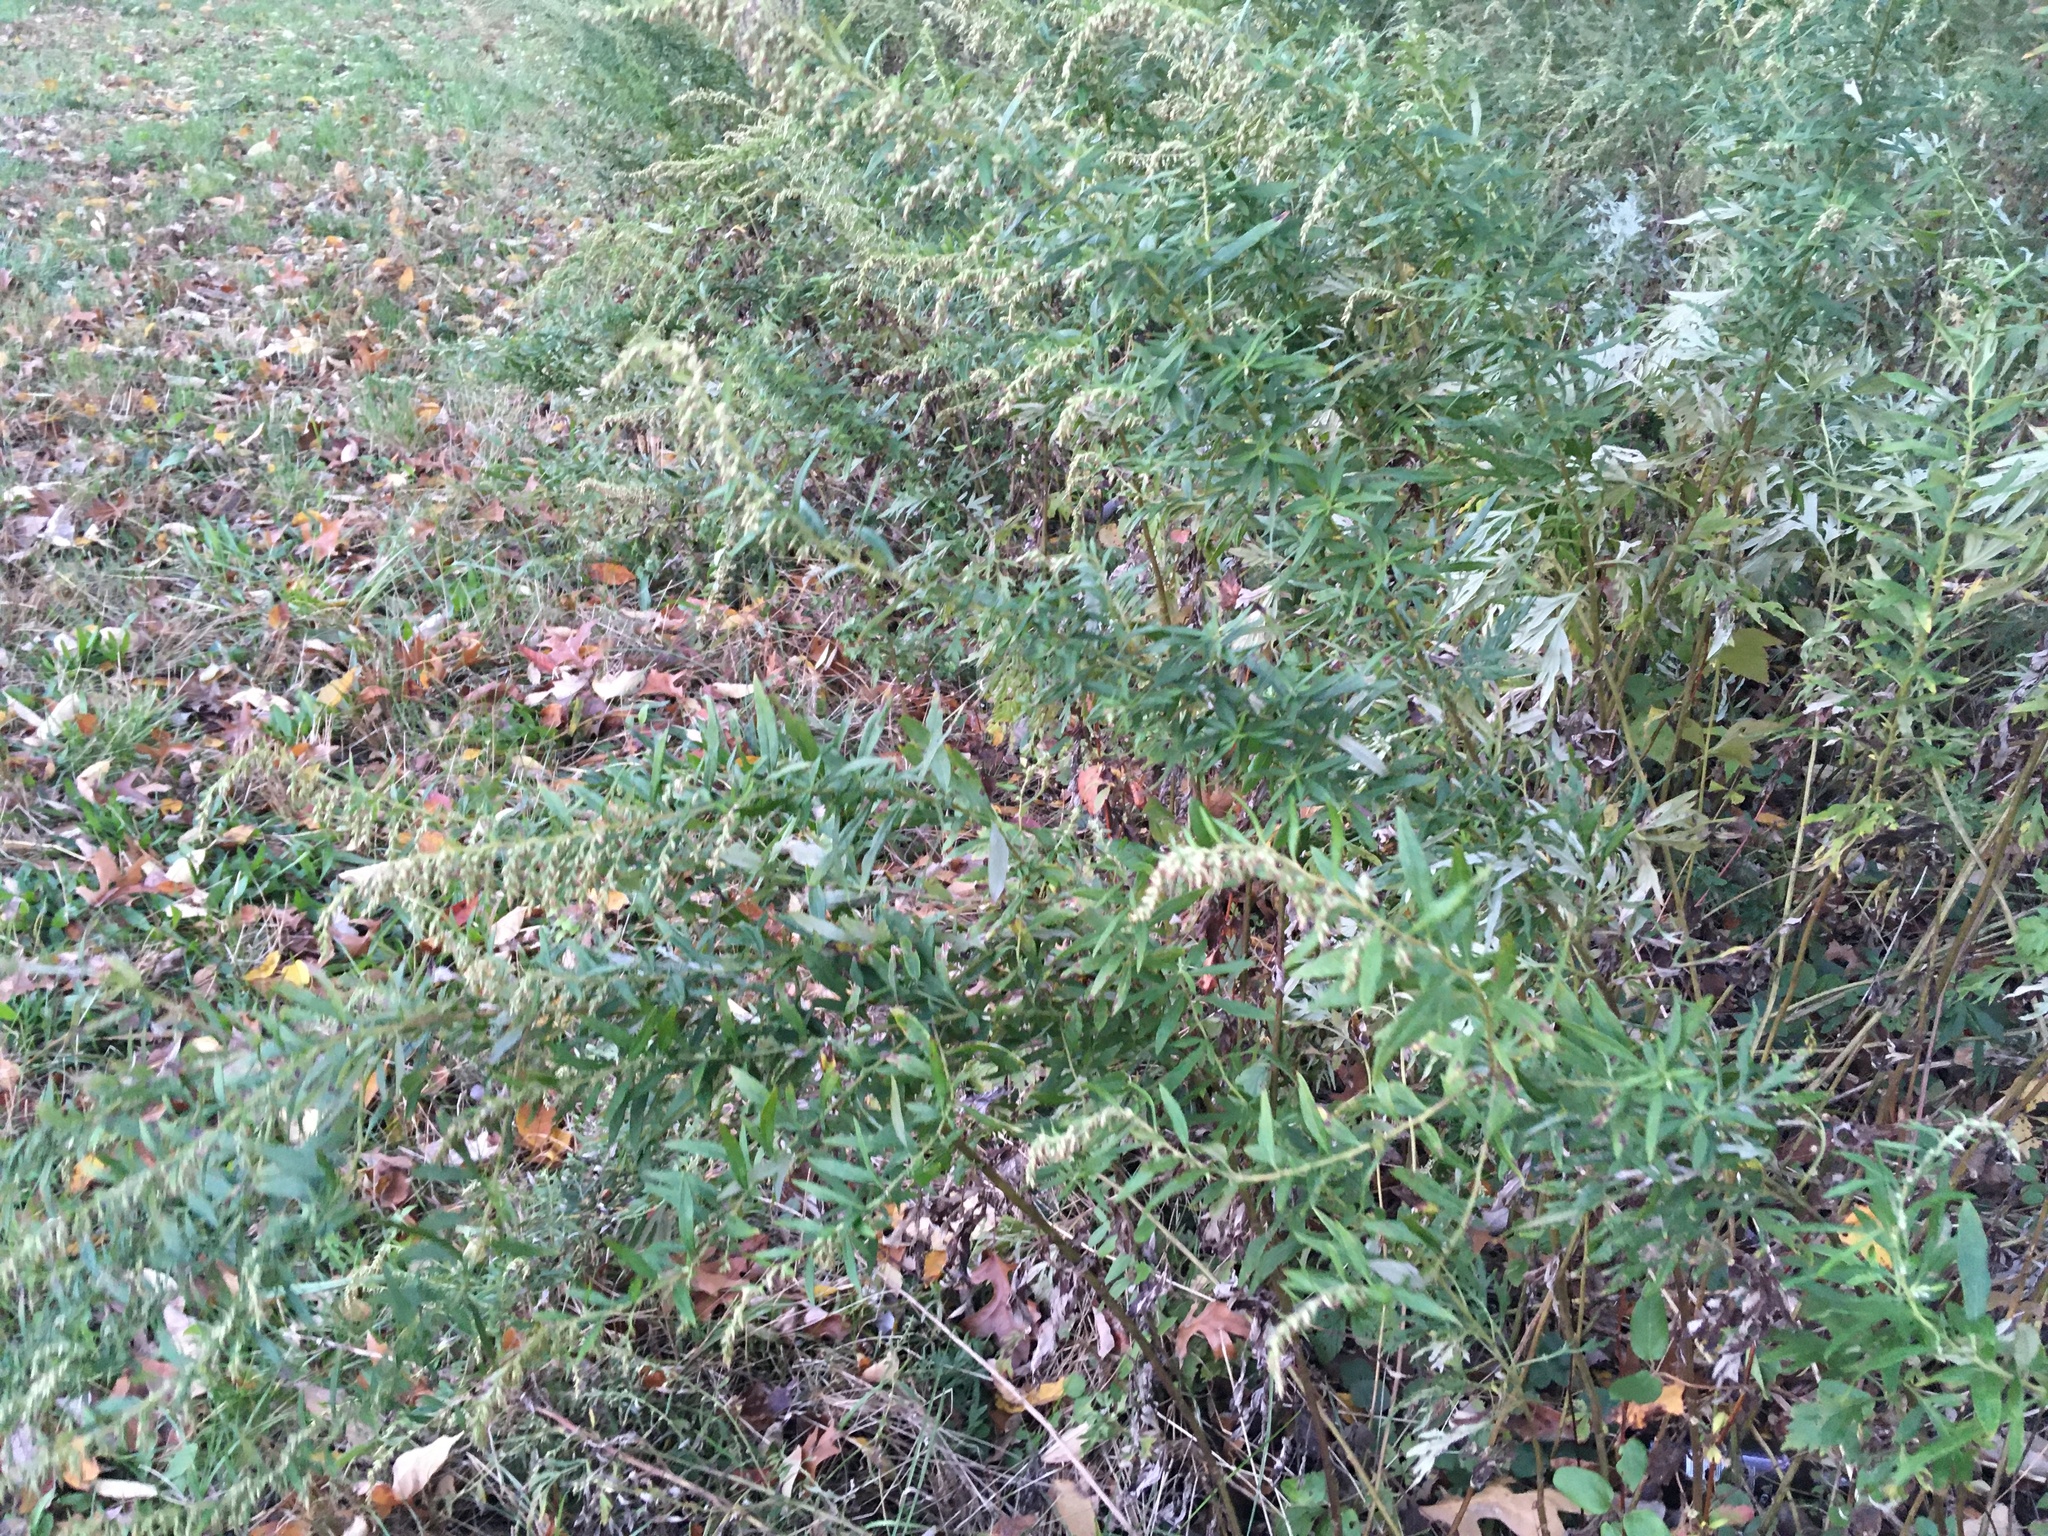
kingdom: Plantae
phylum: Tracheophyta
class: Magnoliopsida
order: Asterales
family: Asteraceae
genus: Artemisia
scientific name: Artemisia vulgaris
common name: Mugwort
